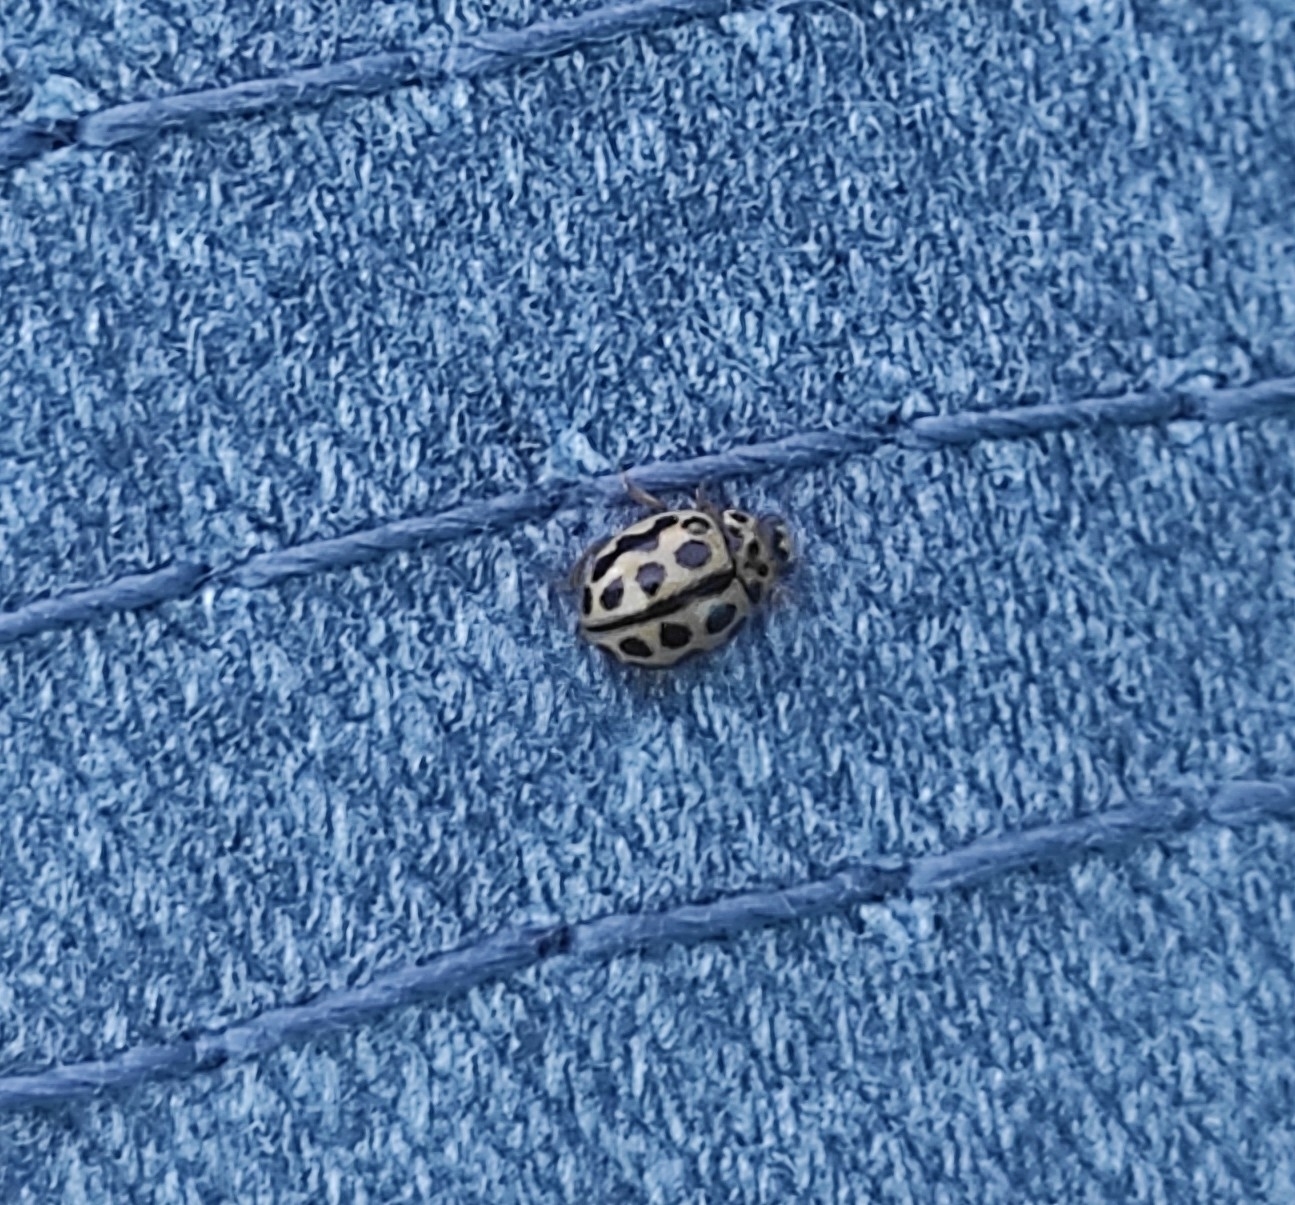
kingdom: Animalia
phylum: Arthropoda
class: Insecta
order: Coleoptera
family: Coccinellidae
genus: Tytthaspis
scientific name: Tytthaspis sedecimpunctata
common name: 16-spot ladybird
